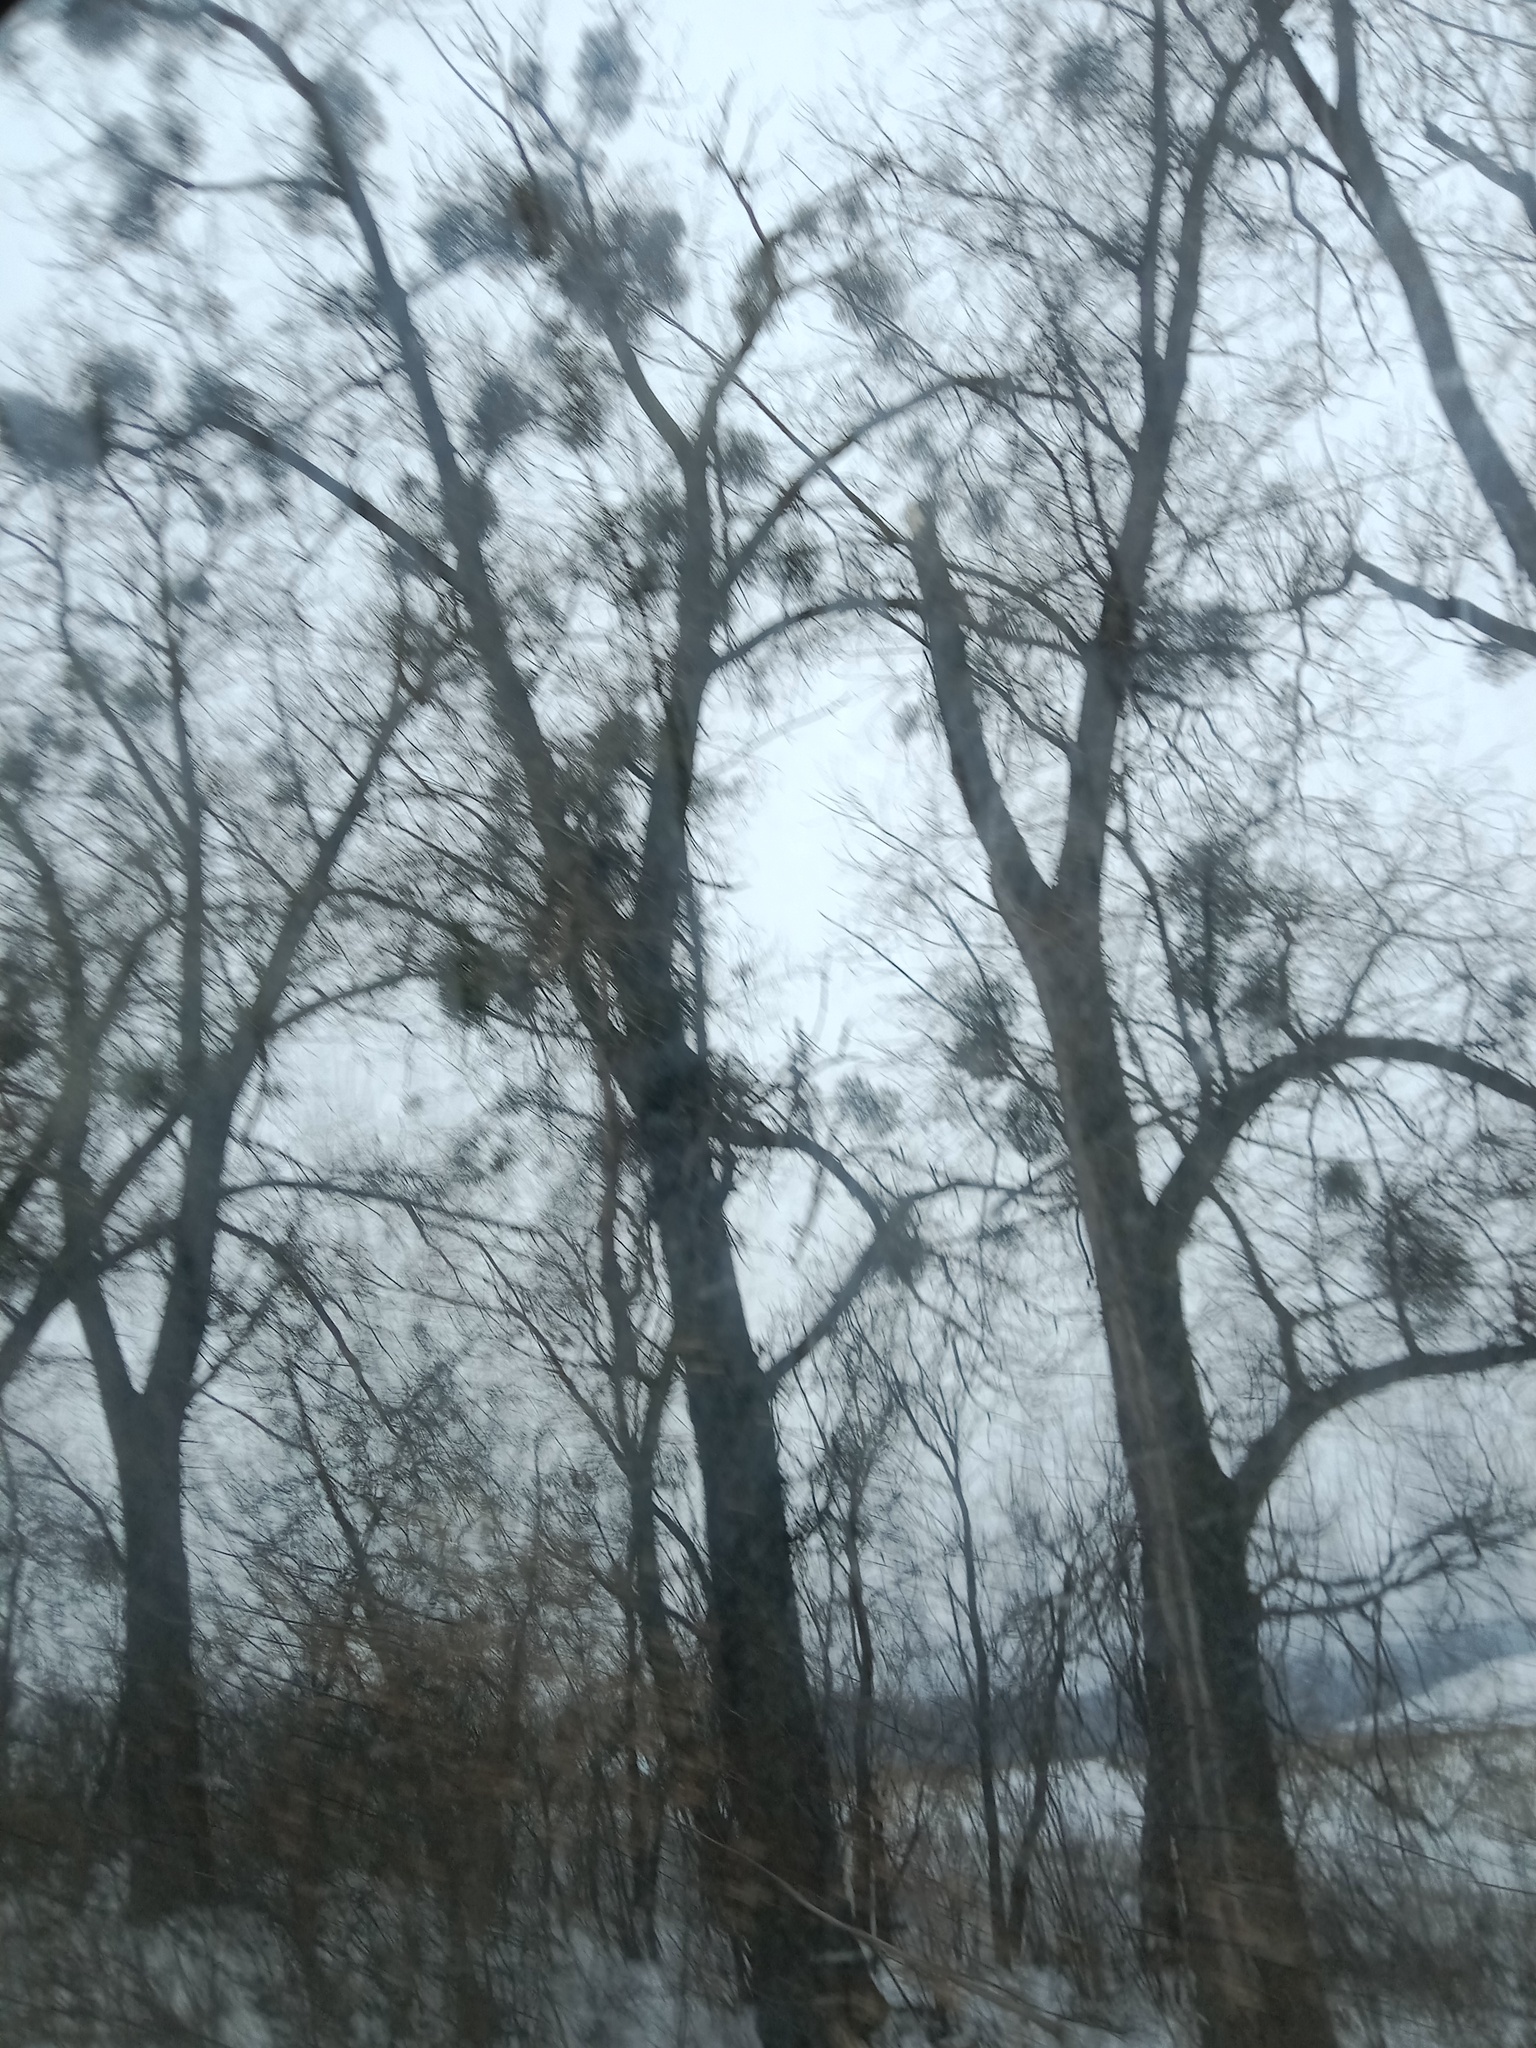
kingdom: Plantae
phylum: Tracheophyta
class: Magnoliopsida
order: Santalales
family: Viscaceae
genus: Viscum
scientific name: Viscum album
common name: Mistletoe
